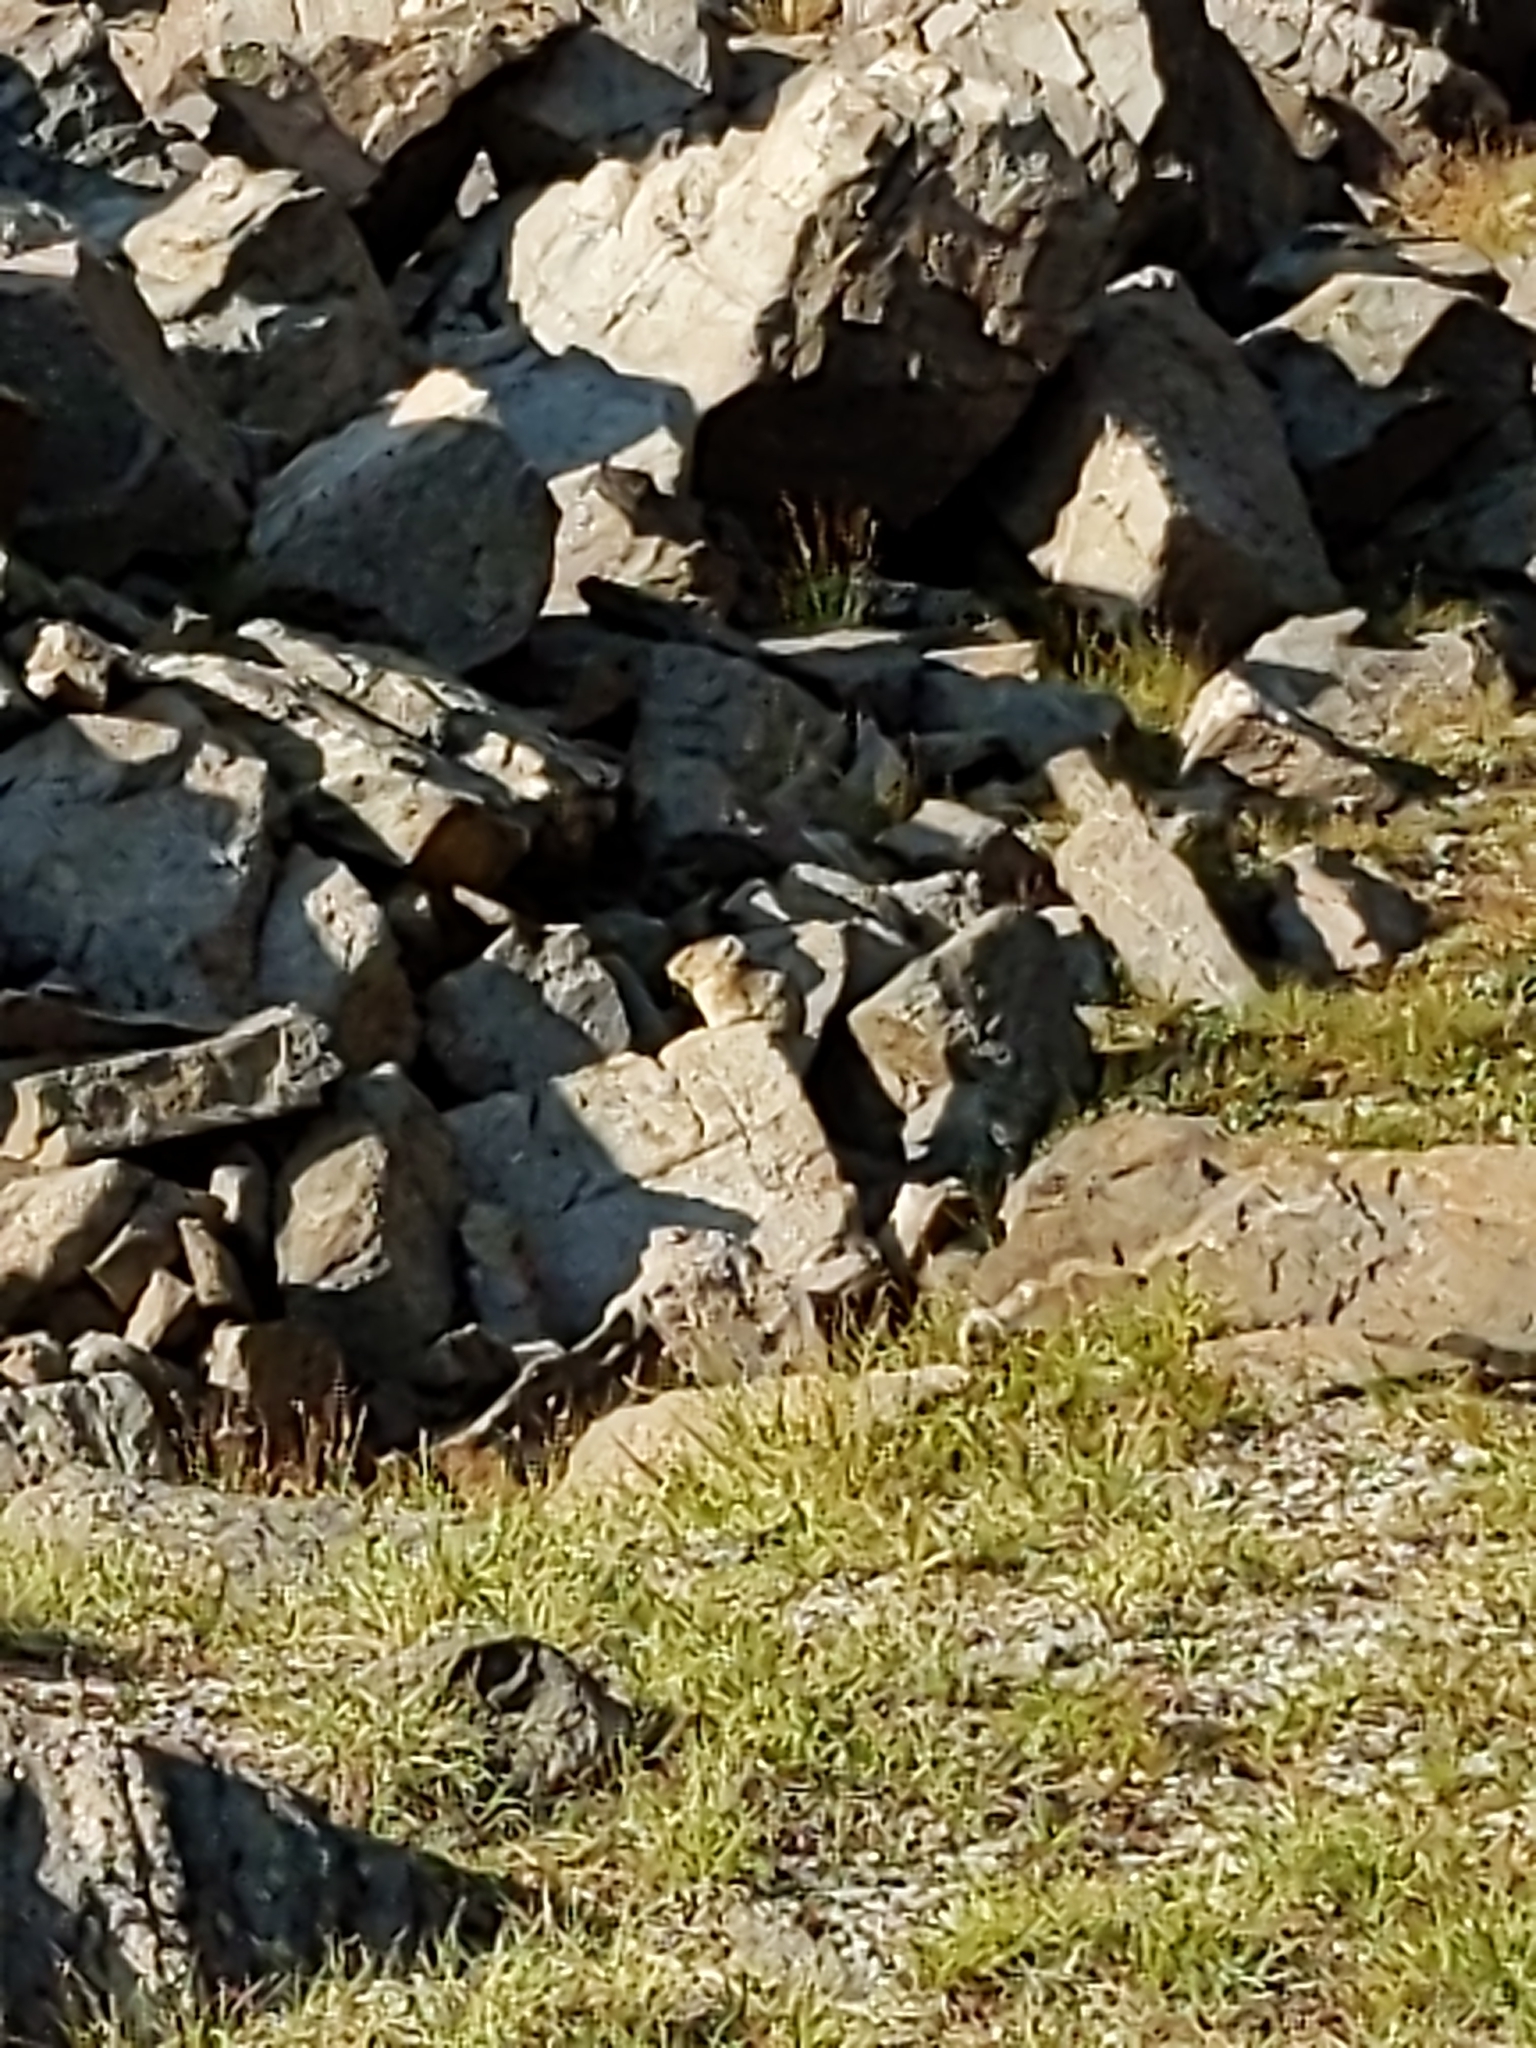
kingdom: Animalia
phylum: Chordata
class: Mammalia
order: Lagomorpha
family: Ochotonidae
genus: Ochotona
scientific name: Ochotona princeps
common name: American pika
